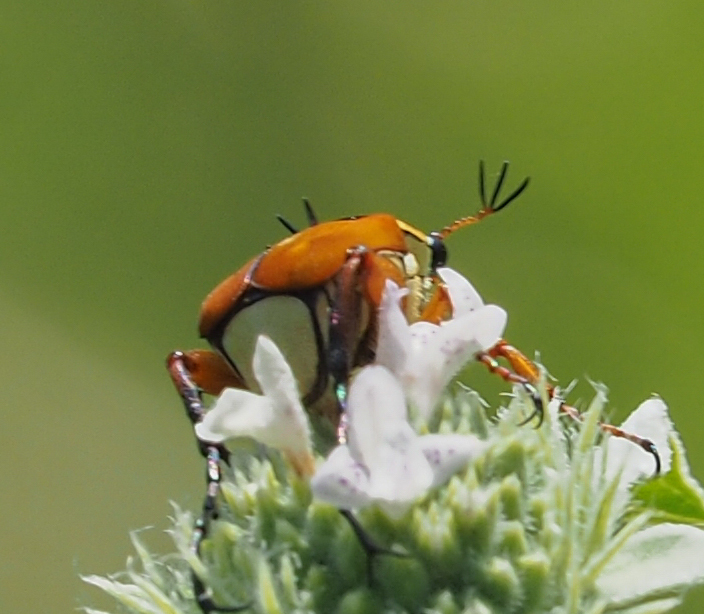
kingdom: Animalia
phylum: Arthropoda
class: Insecta
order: Coleoptera
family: Scarabaeidae
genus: Trigonopeltastes
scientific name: Trigonopeltastes delta
